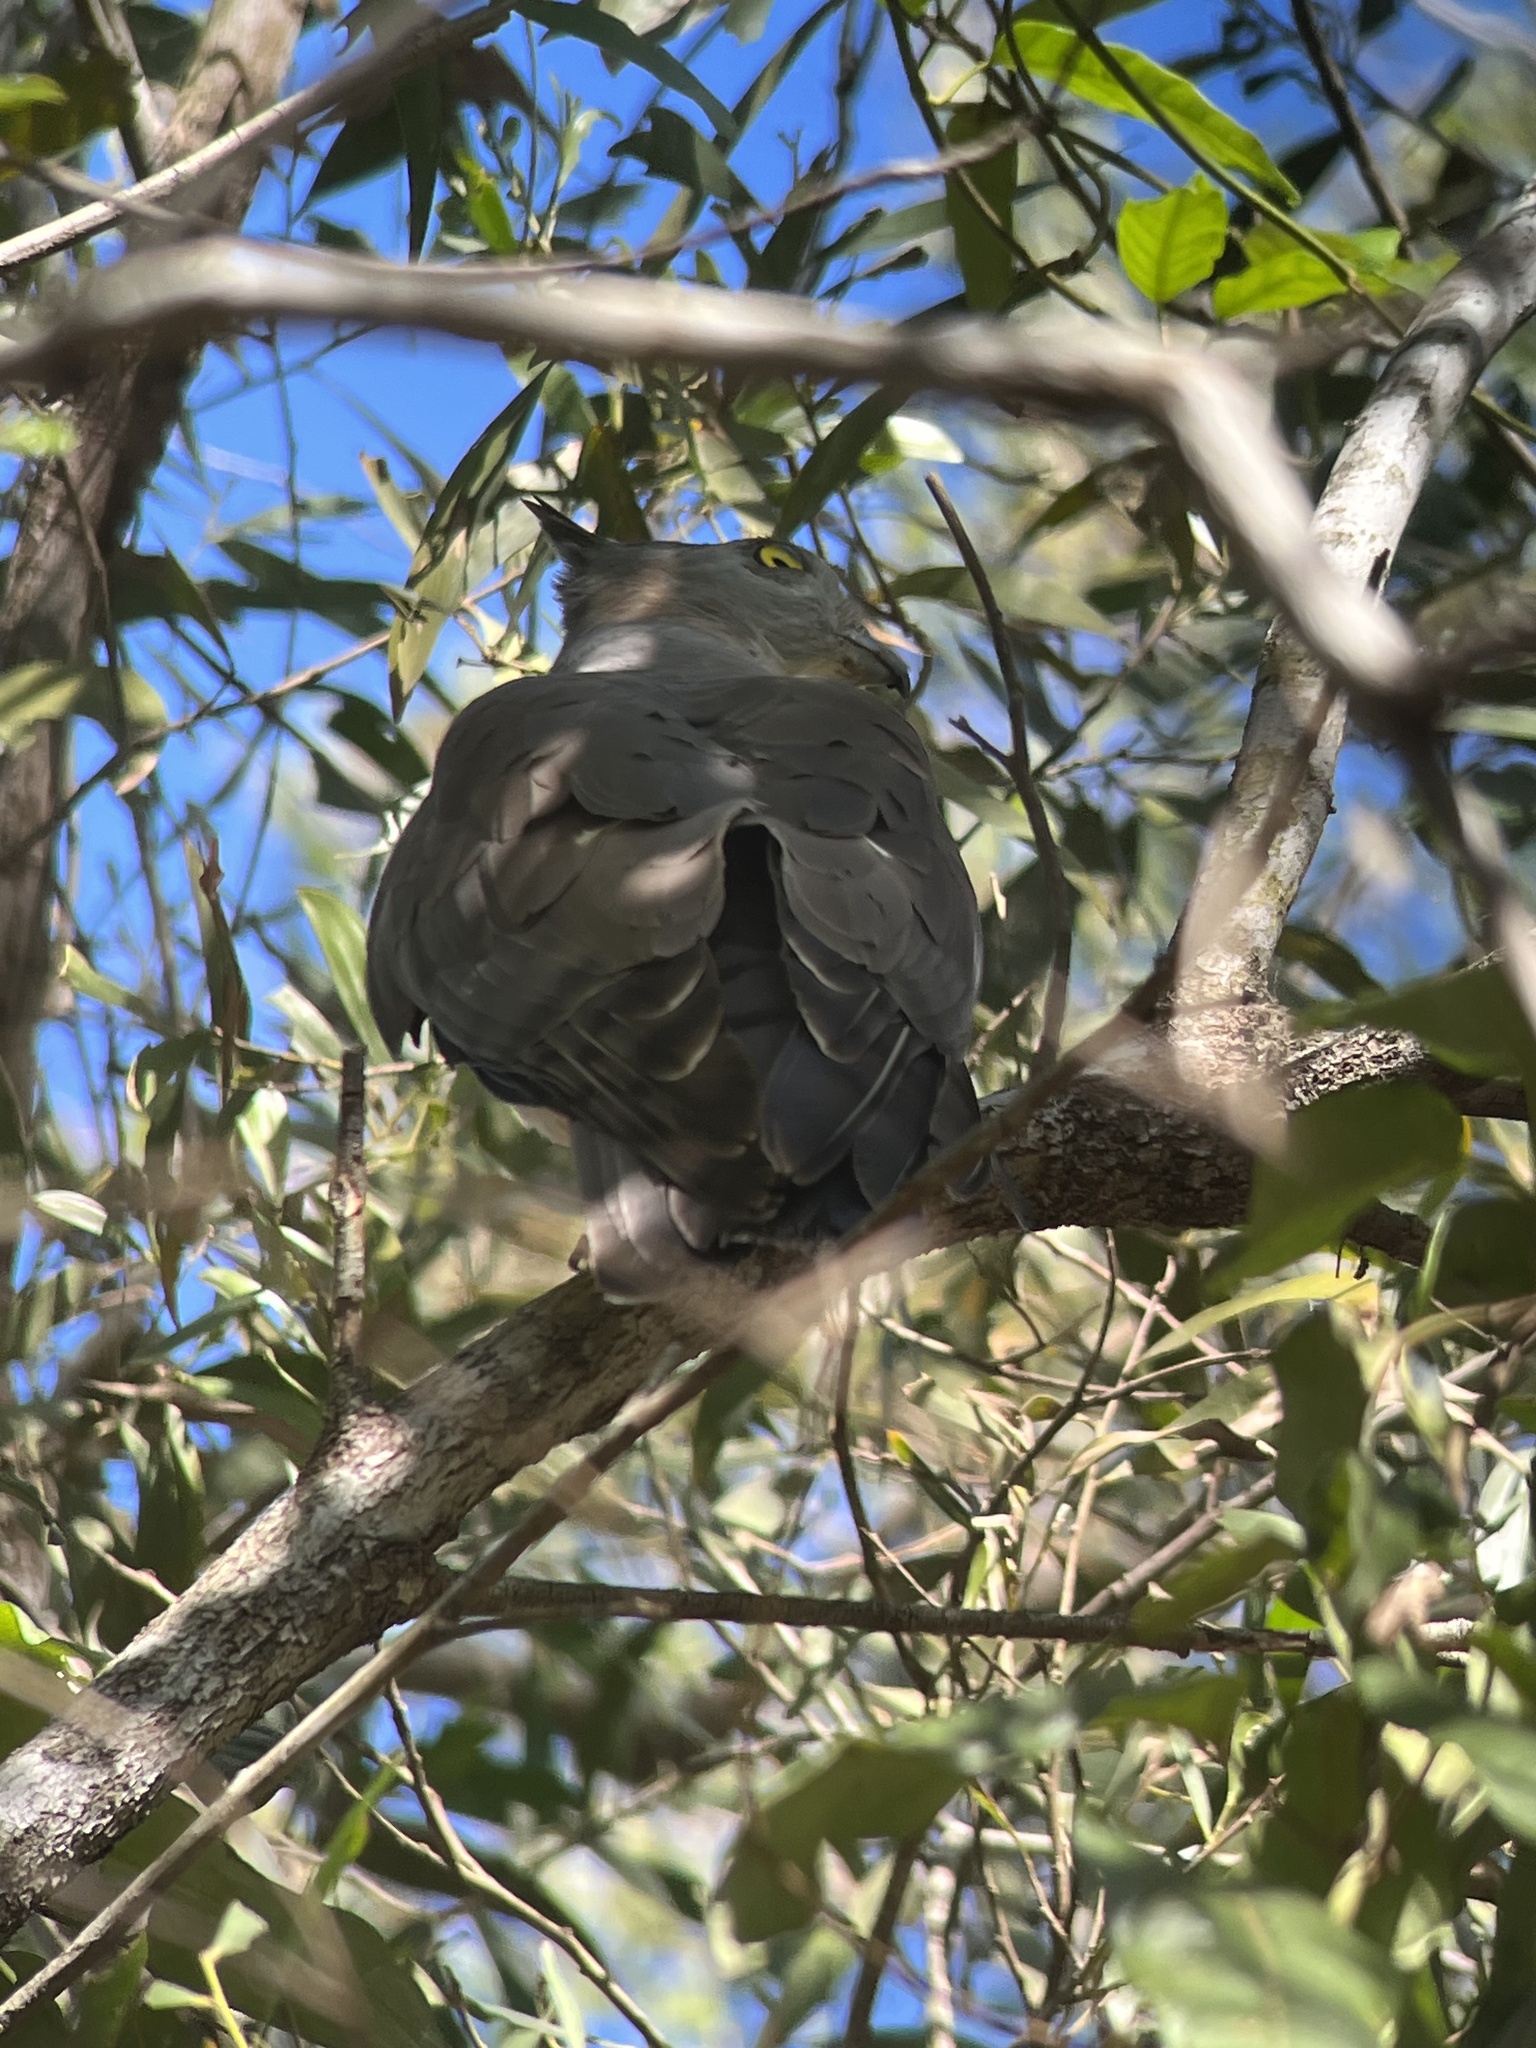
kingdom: Animalia
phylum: Chordata
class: Aves
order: Accipitriformes
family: Accipitridae
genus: Aviceda
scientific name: Aviceda subcristata
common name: Pacific baza
